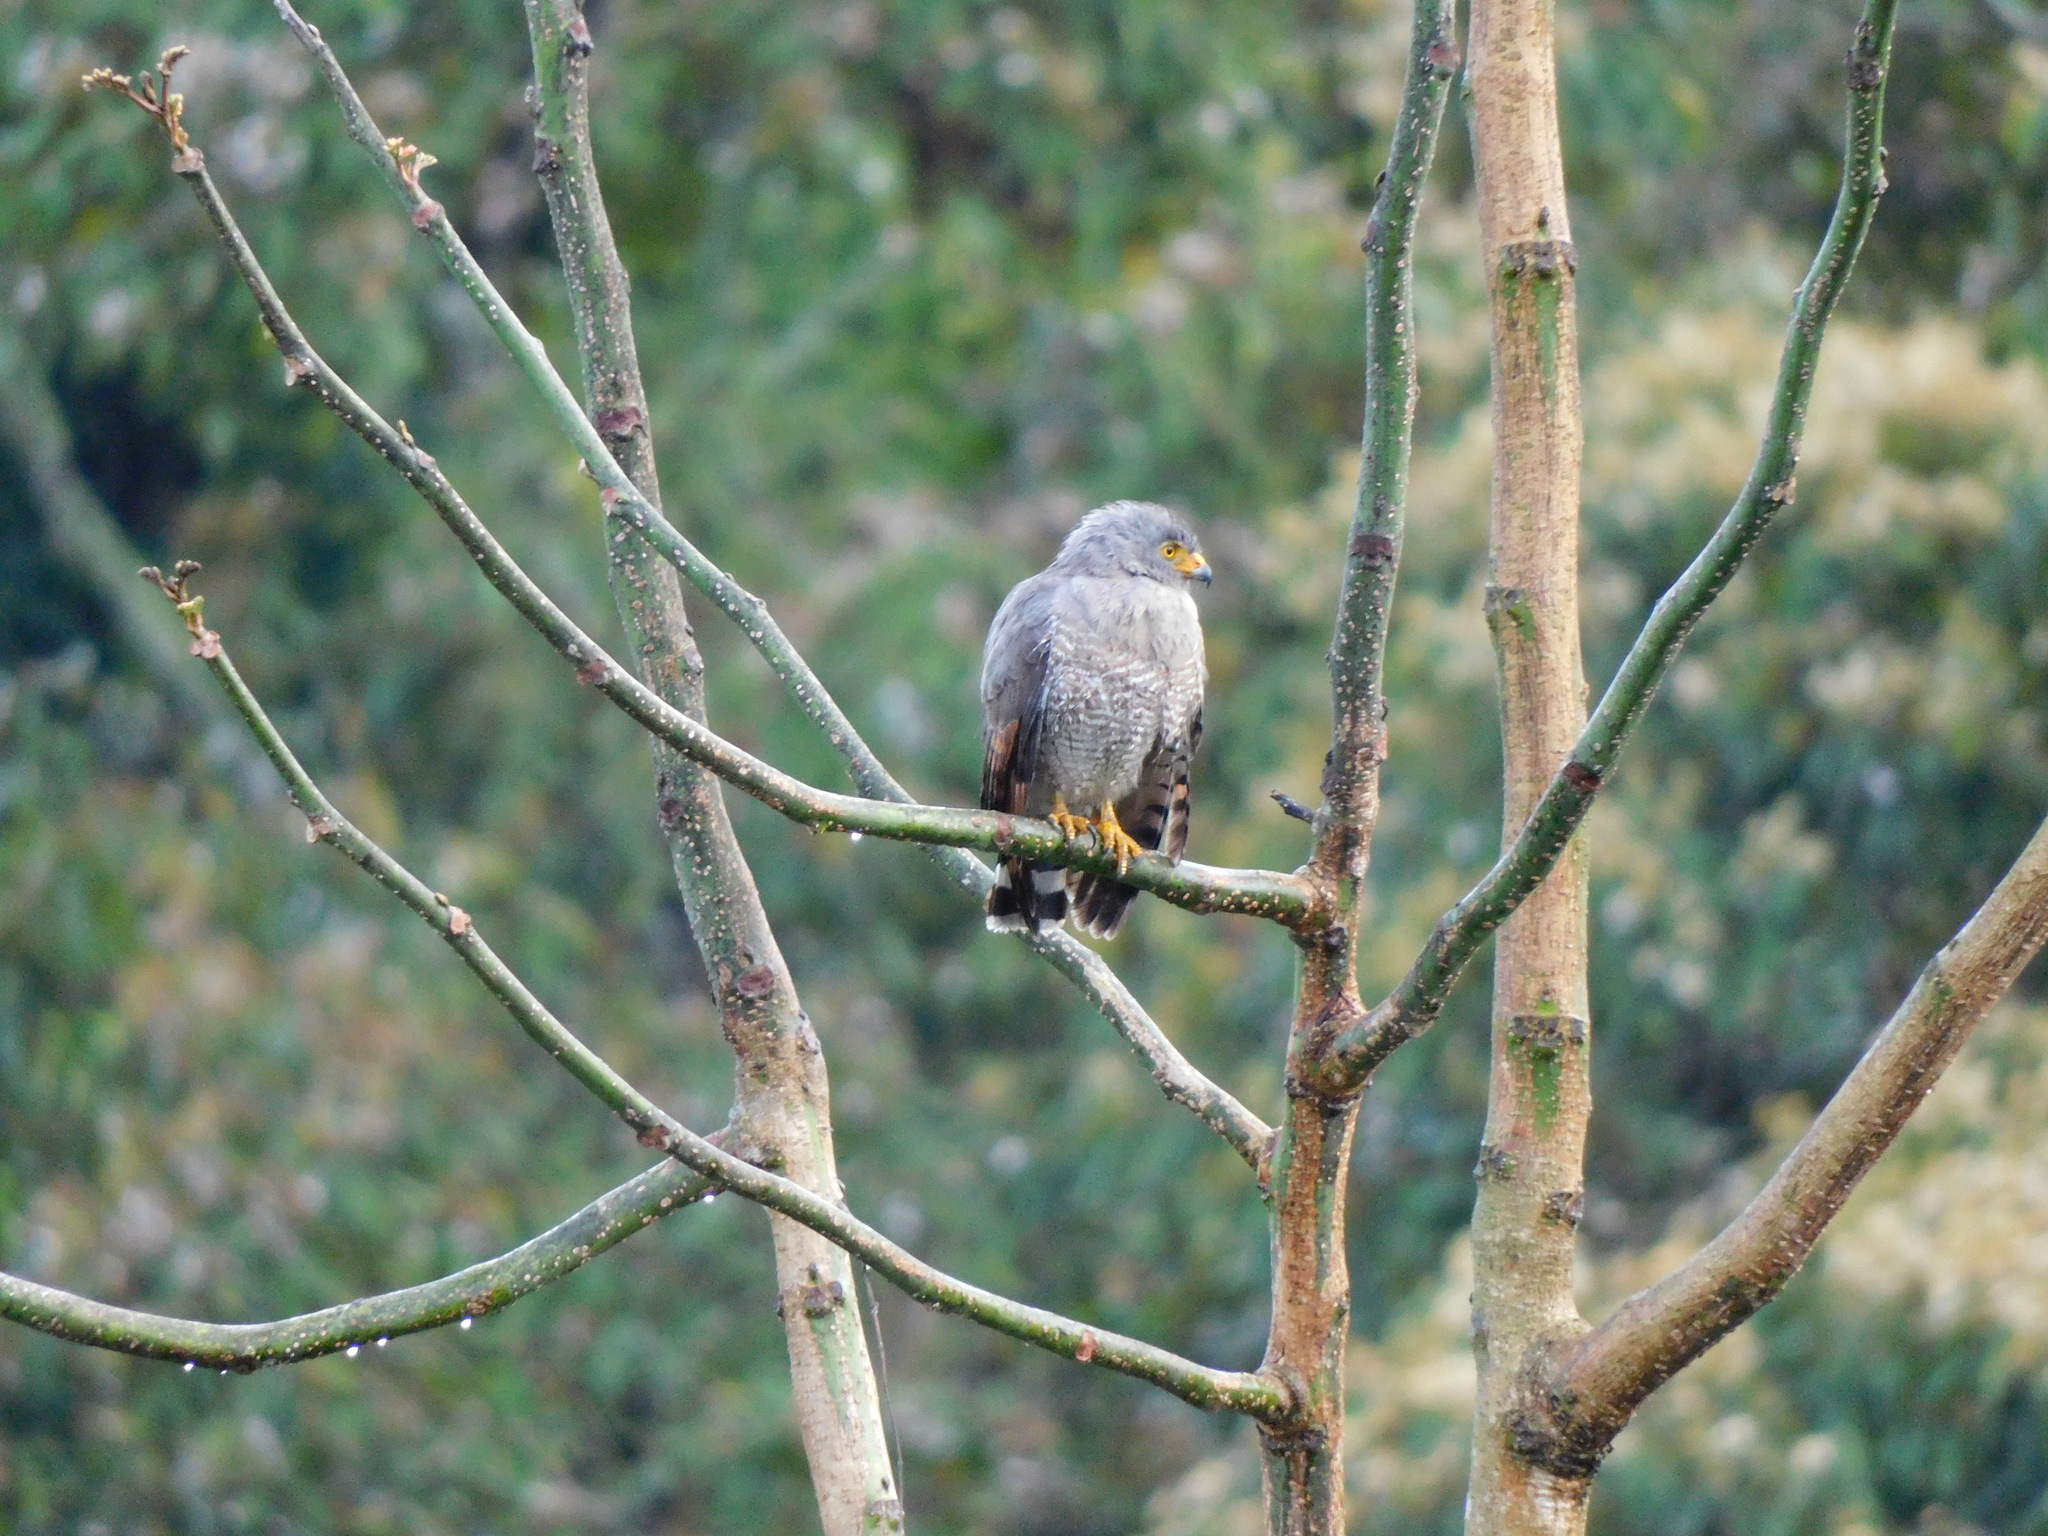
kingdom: Animalia
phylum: Chordata
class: Aves
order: Accipitriformes
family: Accipitridae
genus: Rupornis
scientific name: Rupornis magnirostris
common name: Roadside hawk
